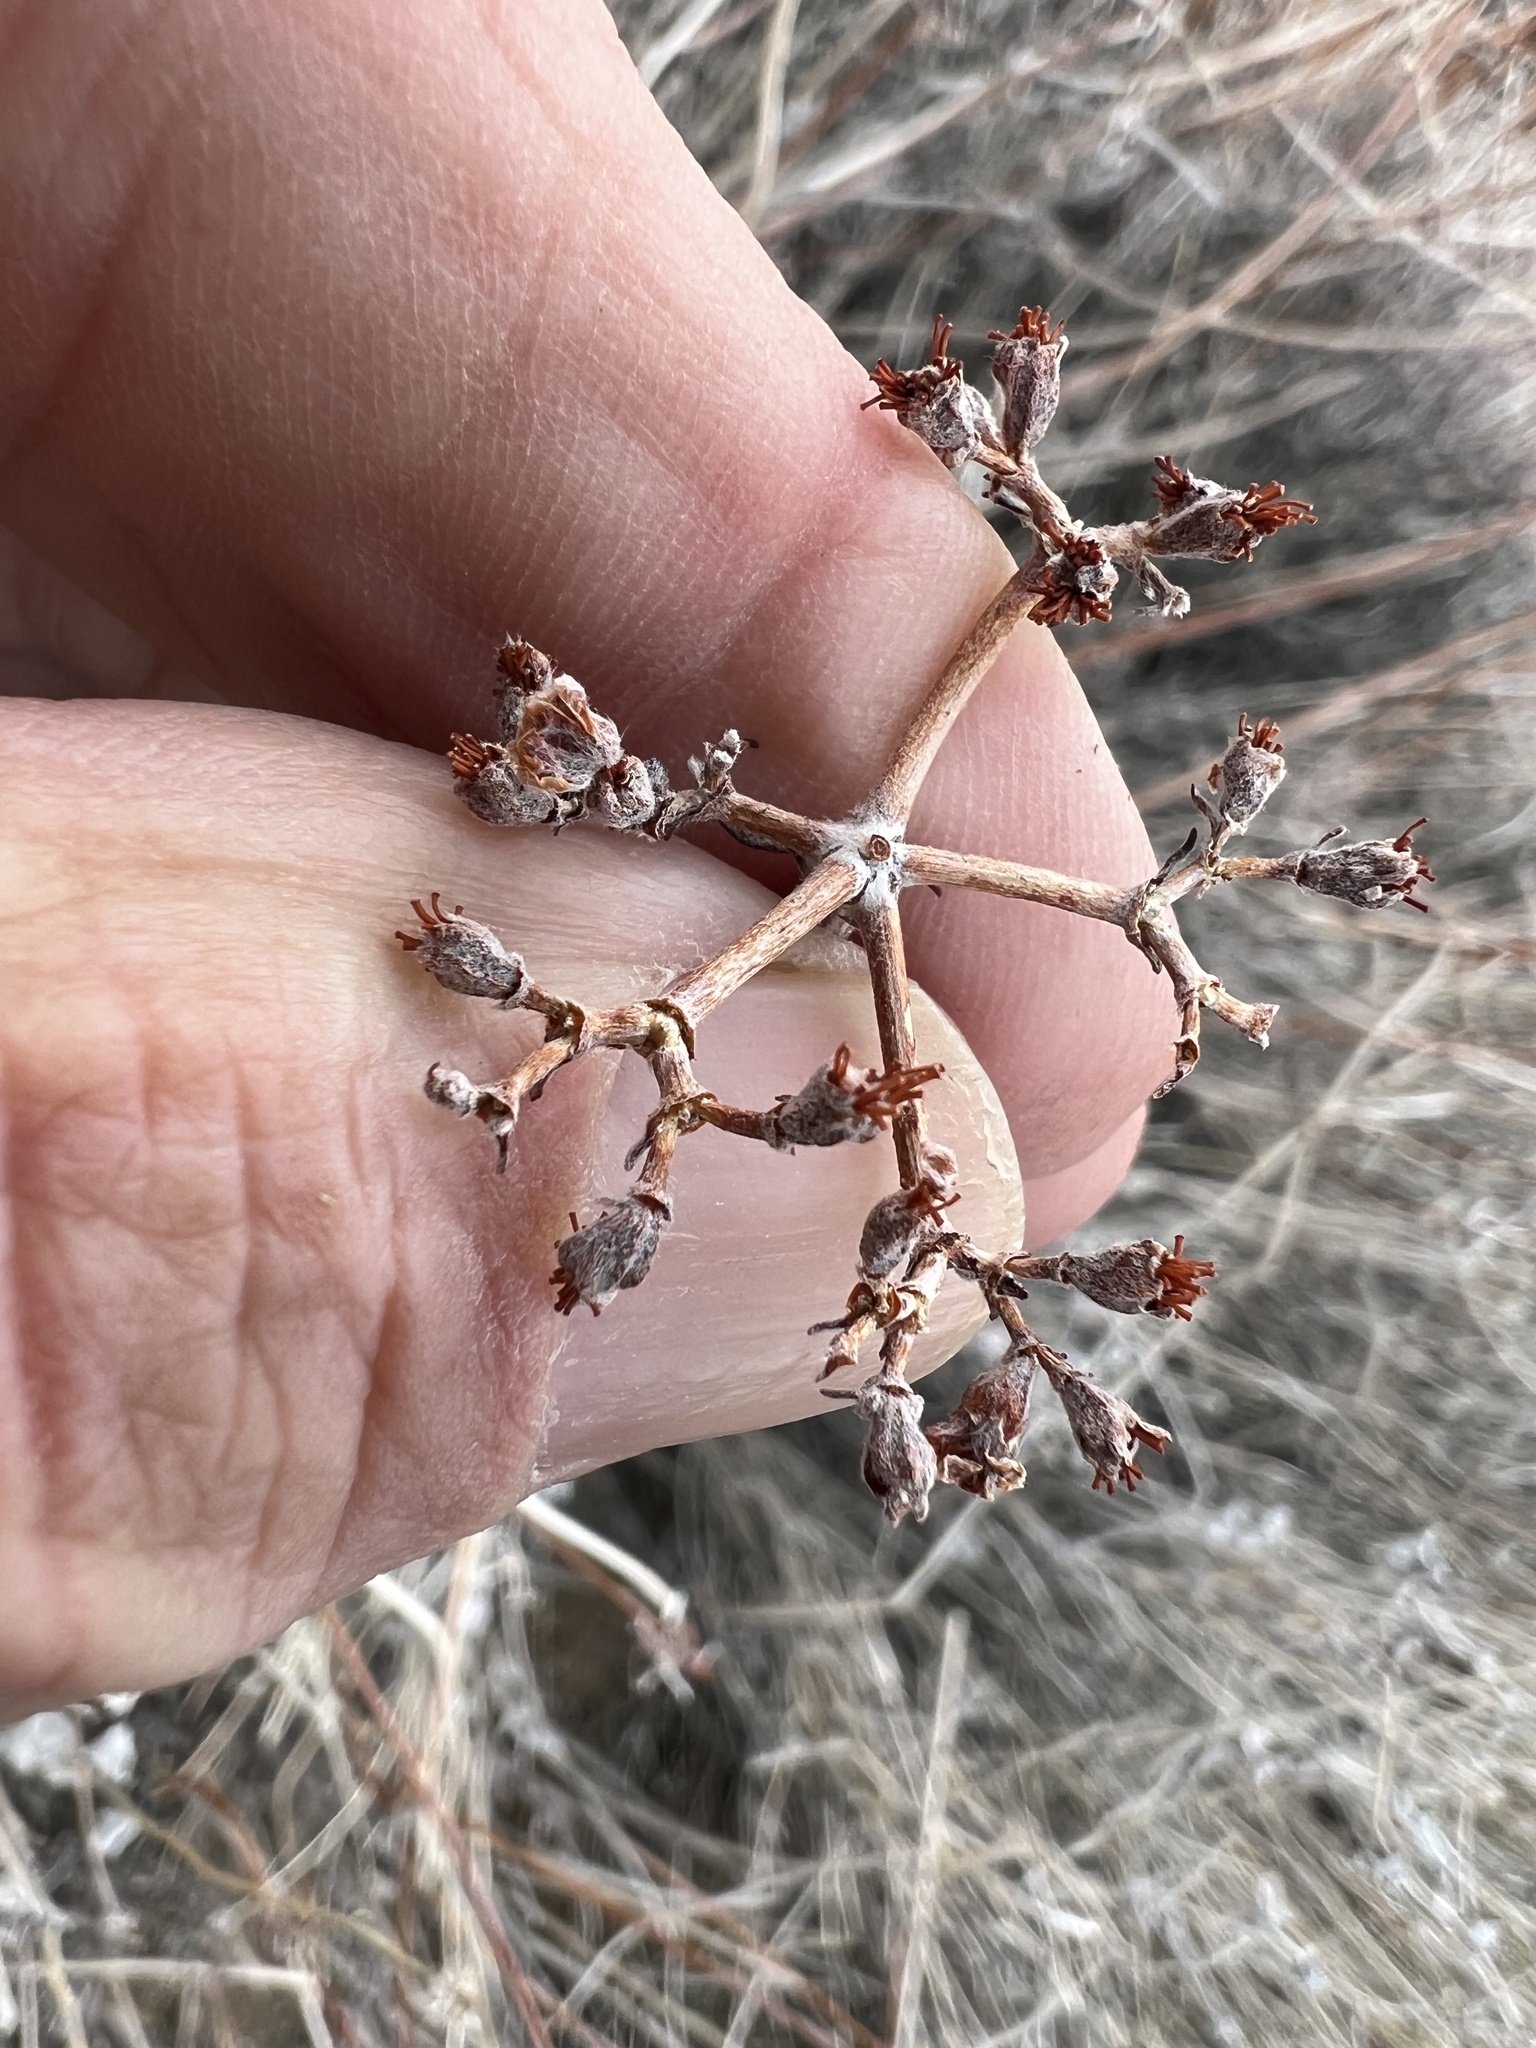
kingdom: Plantae
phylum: Tracheophyta
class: Magnoliopsida
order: Caryophyllales
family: Polygonaceae
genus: Eriogonum
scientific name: Eriogonum fasciculatum
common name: California wild buckwheat
